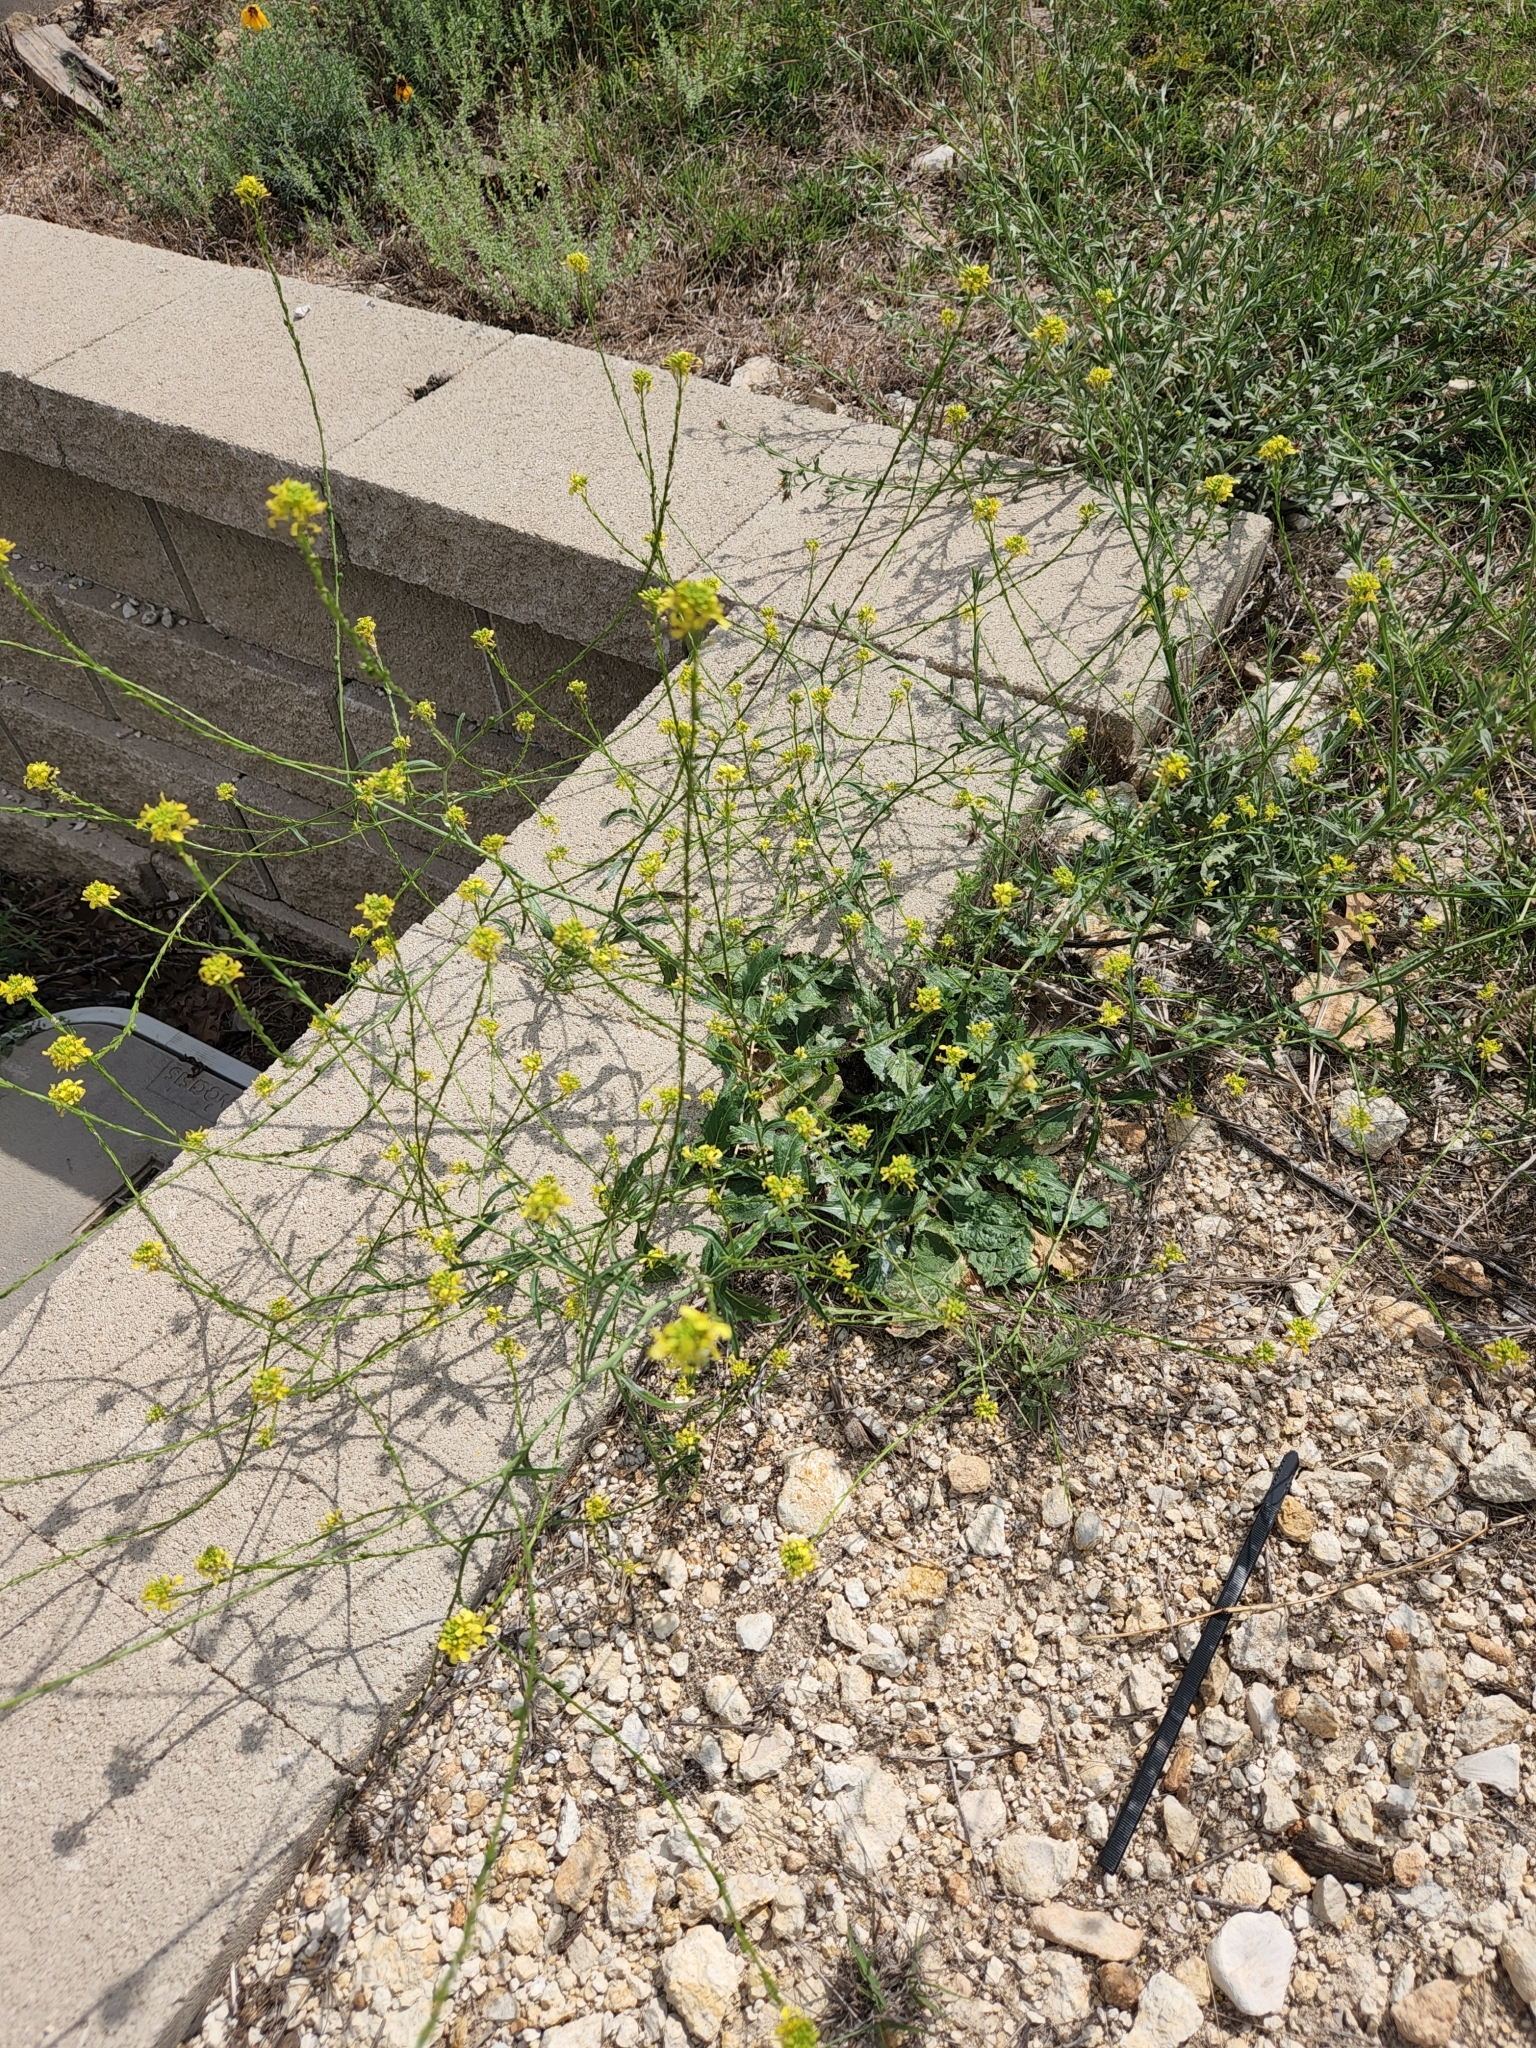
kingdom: Plantae
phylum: Tracheophyta
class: Magnoliopsida
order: Brassicales
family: Brassicaceae
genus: Rapistrum
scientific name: Rapistrum rugosum
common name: Annual bastardcabbage
